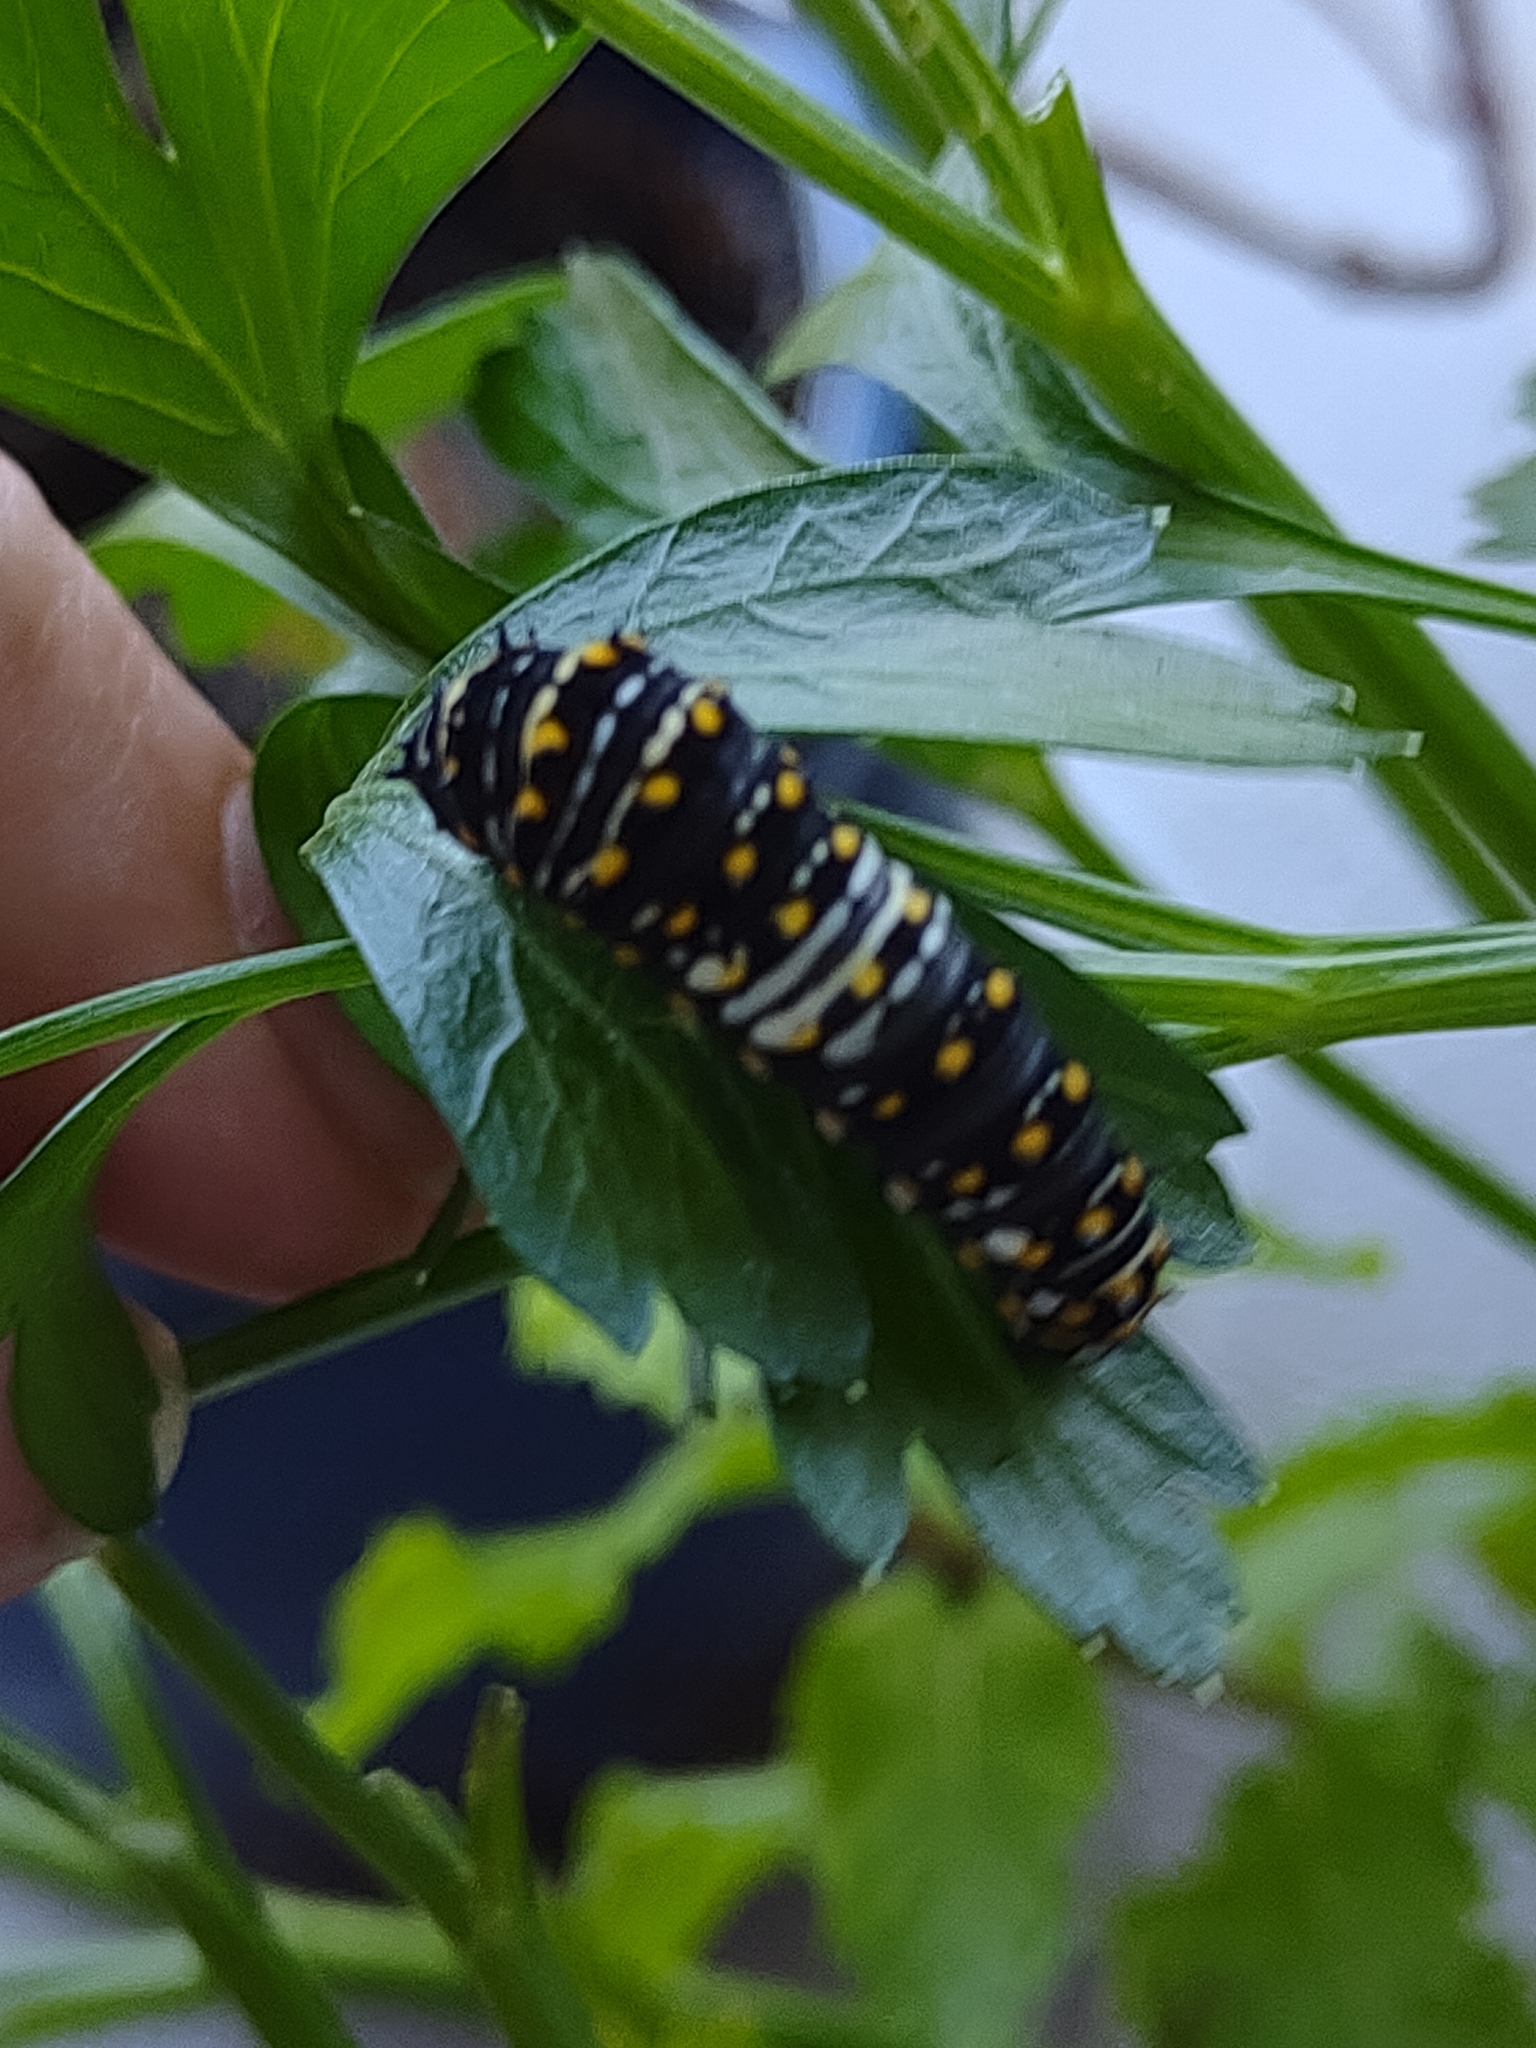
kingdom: Animalia
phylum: Arthropoda
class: Insecta
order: Lepidoptera
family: Papilionidae
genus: Papilio
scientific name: Papilio polyxenes
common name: Black swallowtail
